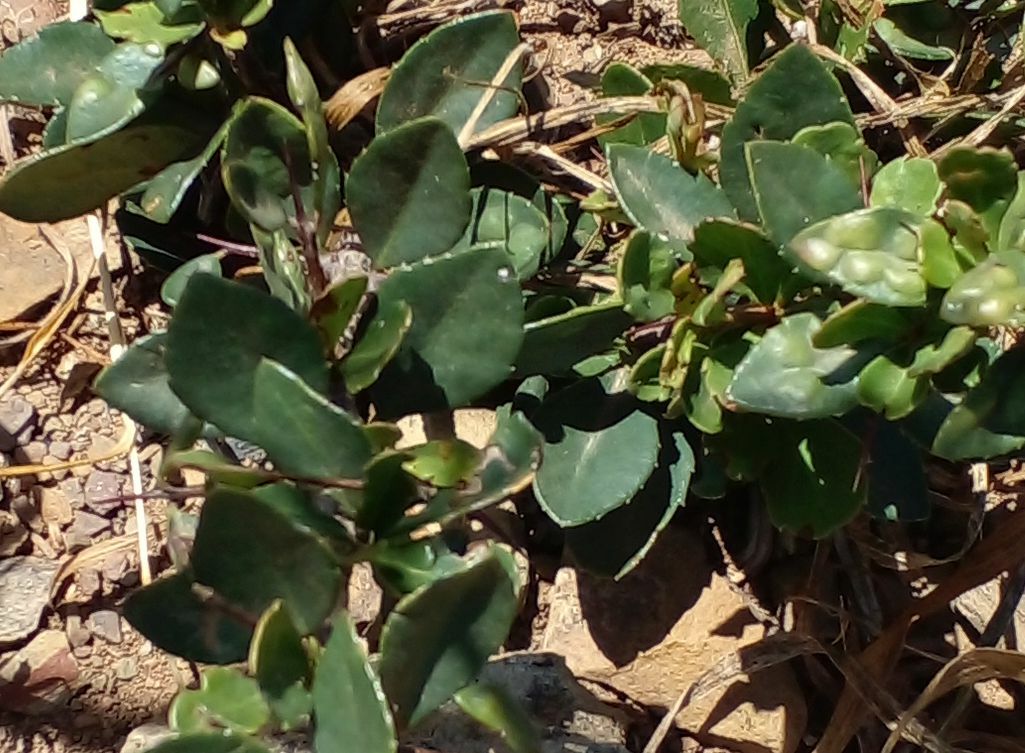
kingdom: Plantae
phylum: Tracheophyta
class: Magnoliopsida
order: Celastrales
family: Celastraceae
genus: Putterlickia
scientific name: Putterlickia pyracantha
